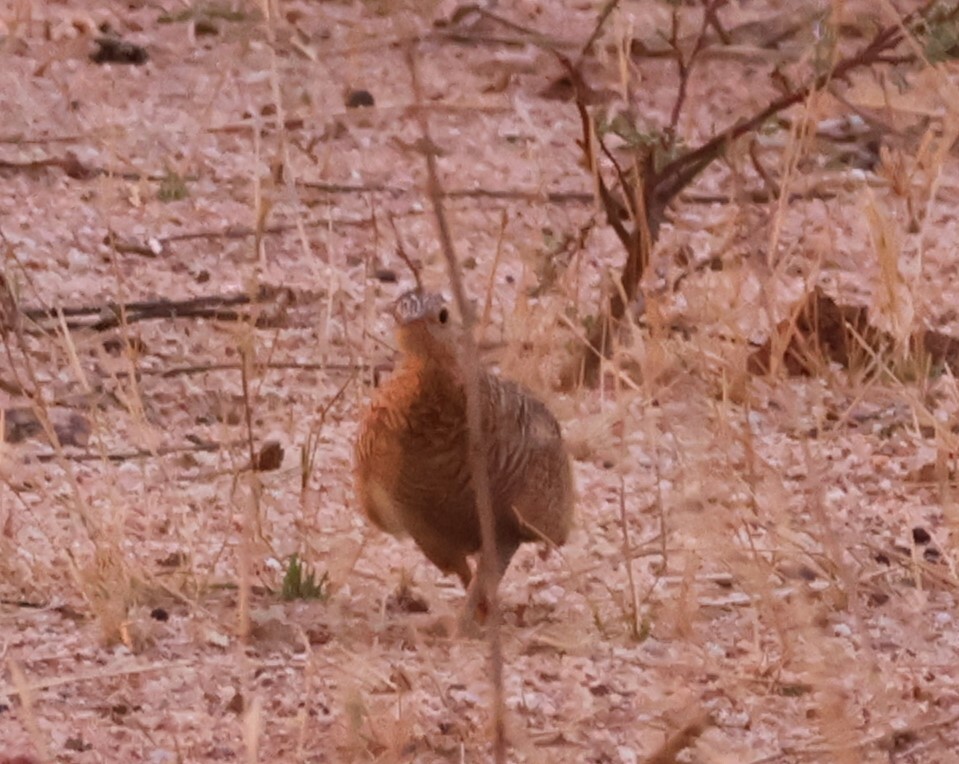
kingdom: Animalia
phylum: Chordata
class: Aves
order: Pteroclidiformes
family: Pteroclididae
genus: Pterocles
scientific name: Pterocles namaqua
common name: Namaqua sandgrouse
